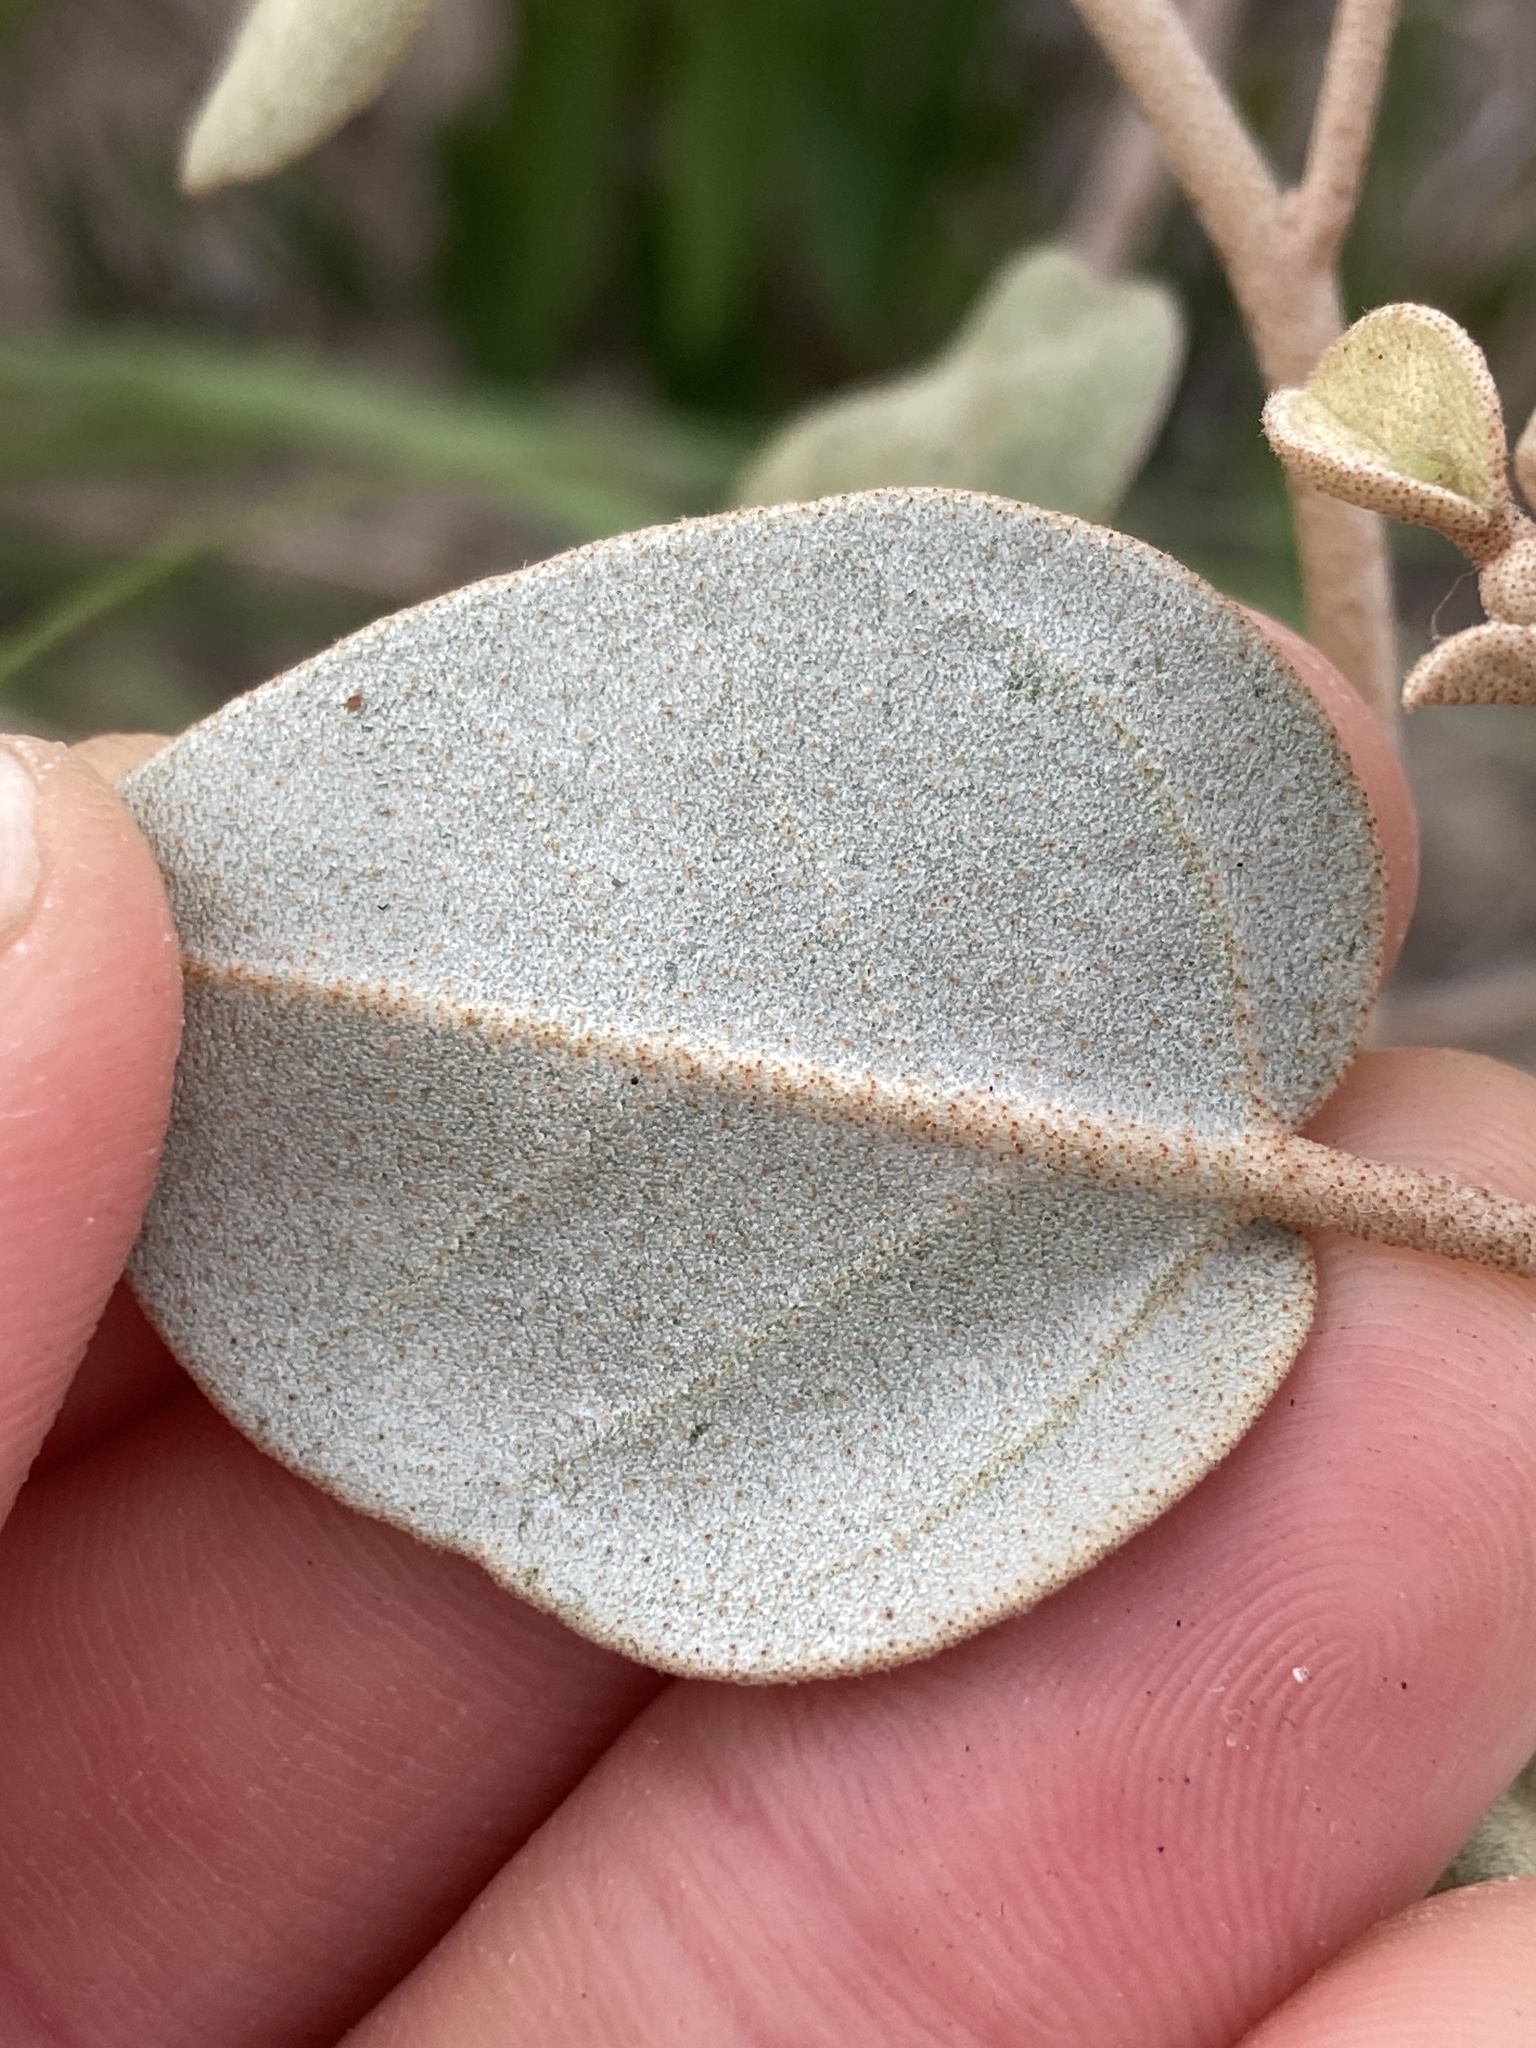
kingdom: Plantae
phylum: Tracheophyta
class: Magnoliopsida
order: Malpighiales
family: Euphorbiaceae
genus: Croton
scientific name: Croton punctatus
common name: Beach-tea
